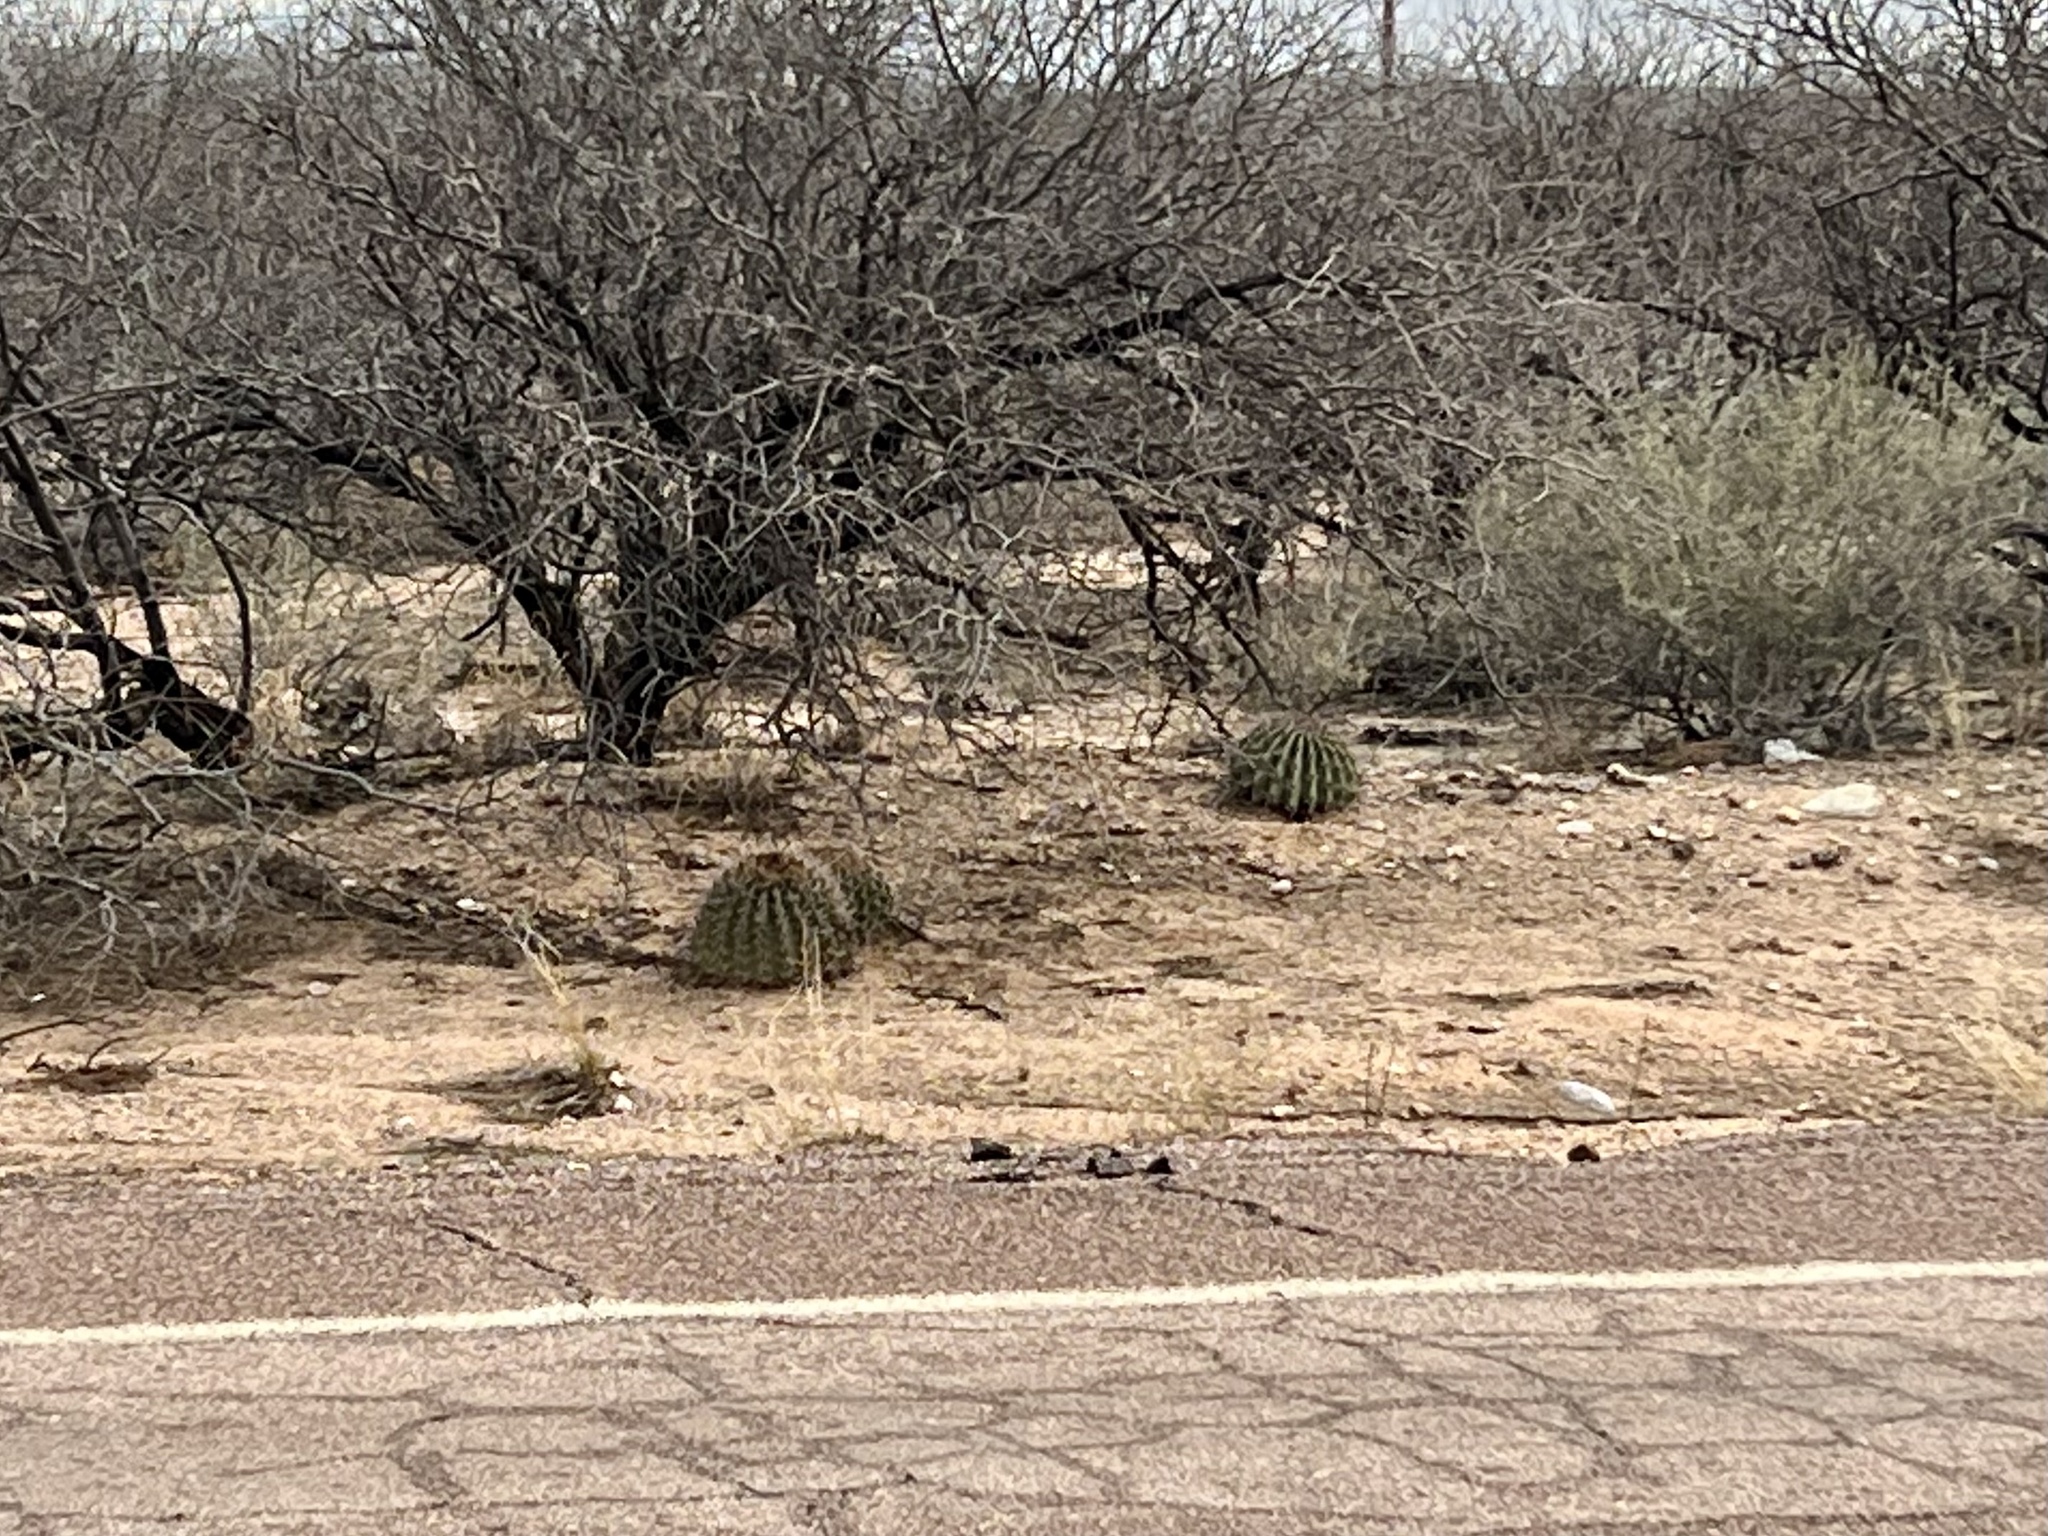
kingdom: Plantae
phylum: Tracheophyta
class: Magnoliopsida
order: Caryophyllales
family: Cactaceae
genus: Ferocactus
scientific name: Ferocactus wislizeni
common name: Candy barrel cactus
